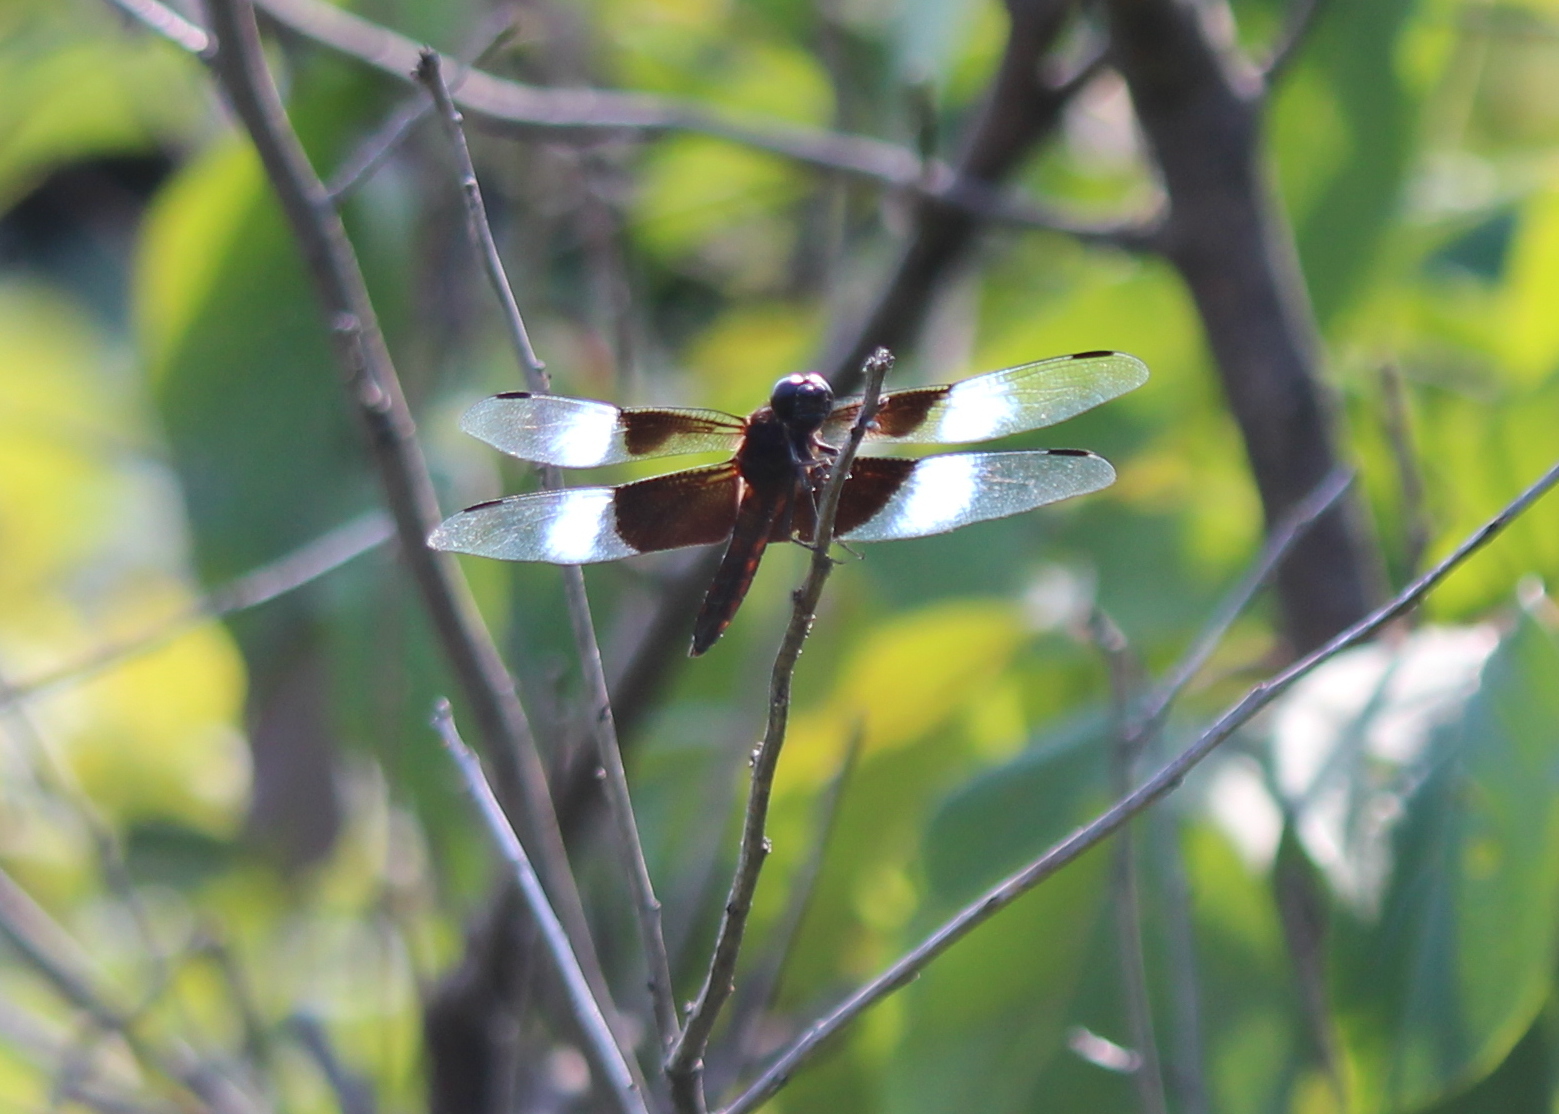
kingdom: Animalia
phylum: Arthropoda
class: Insecta
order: Odonata
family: Libellulidae
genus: Libellula
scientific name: Libellula luctuosa
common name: Widow skimmer
